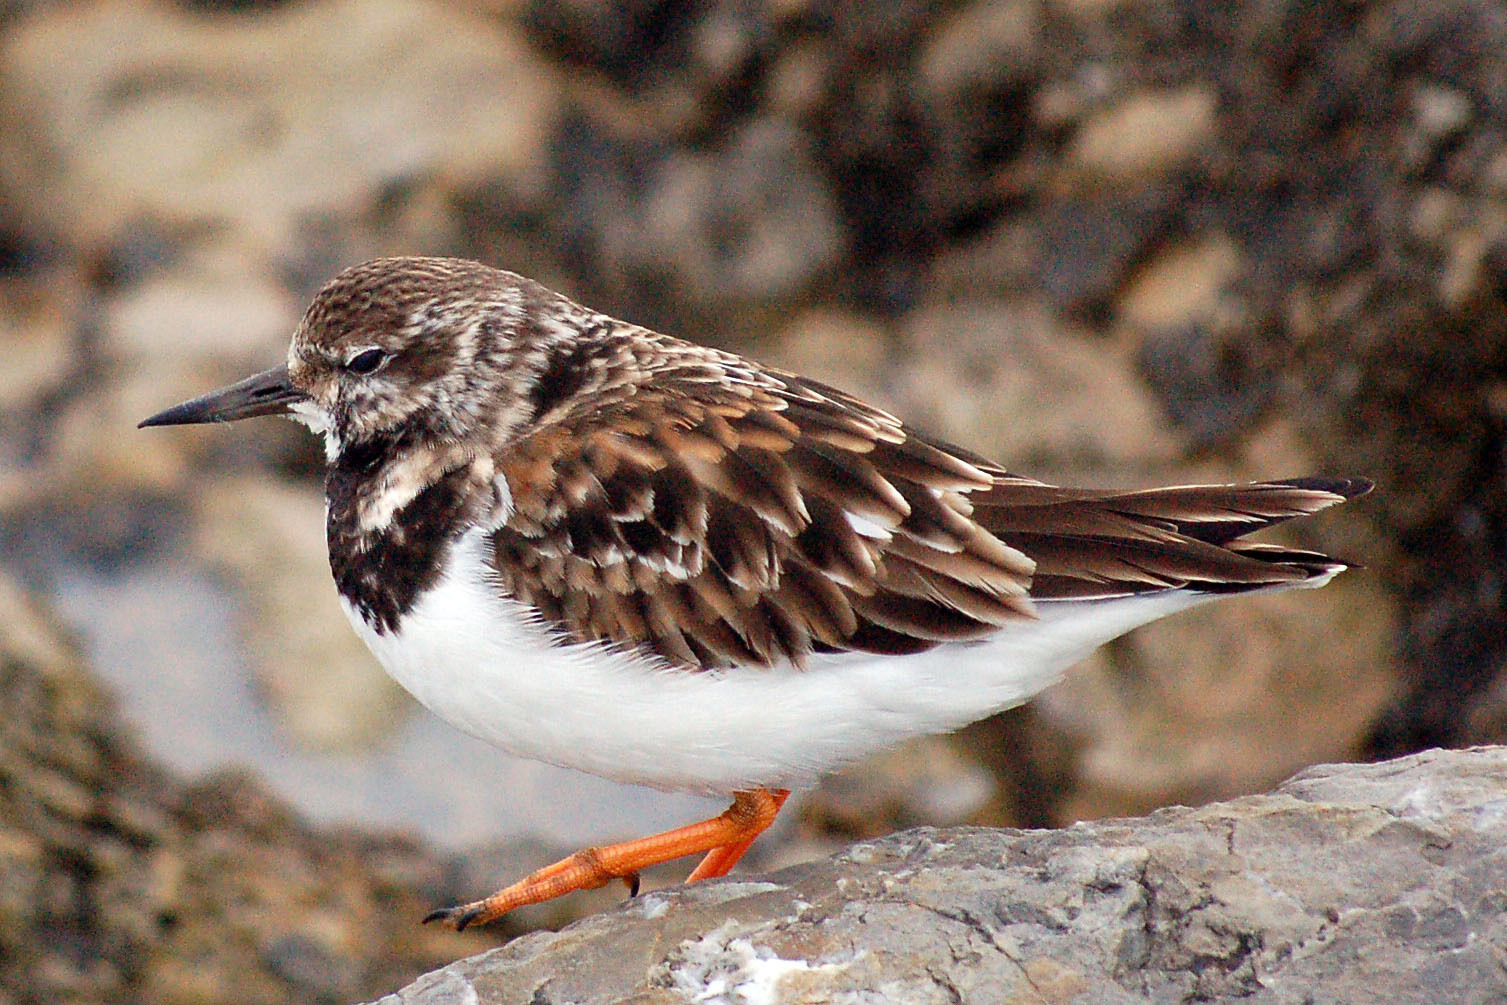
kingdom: Animalia
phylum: Chordata
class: Aves
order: Charadriiformes
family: Scolopacidae
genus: Arenaria
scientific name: Arenaria interpres
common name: Ruddy turnstone
